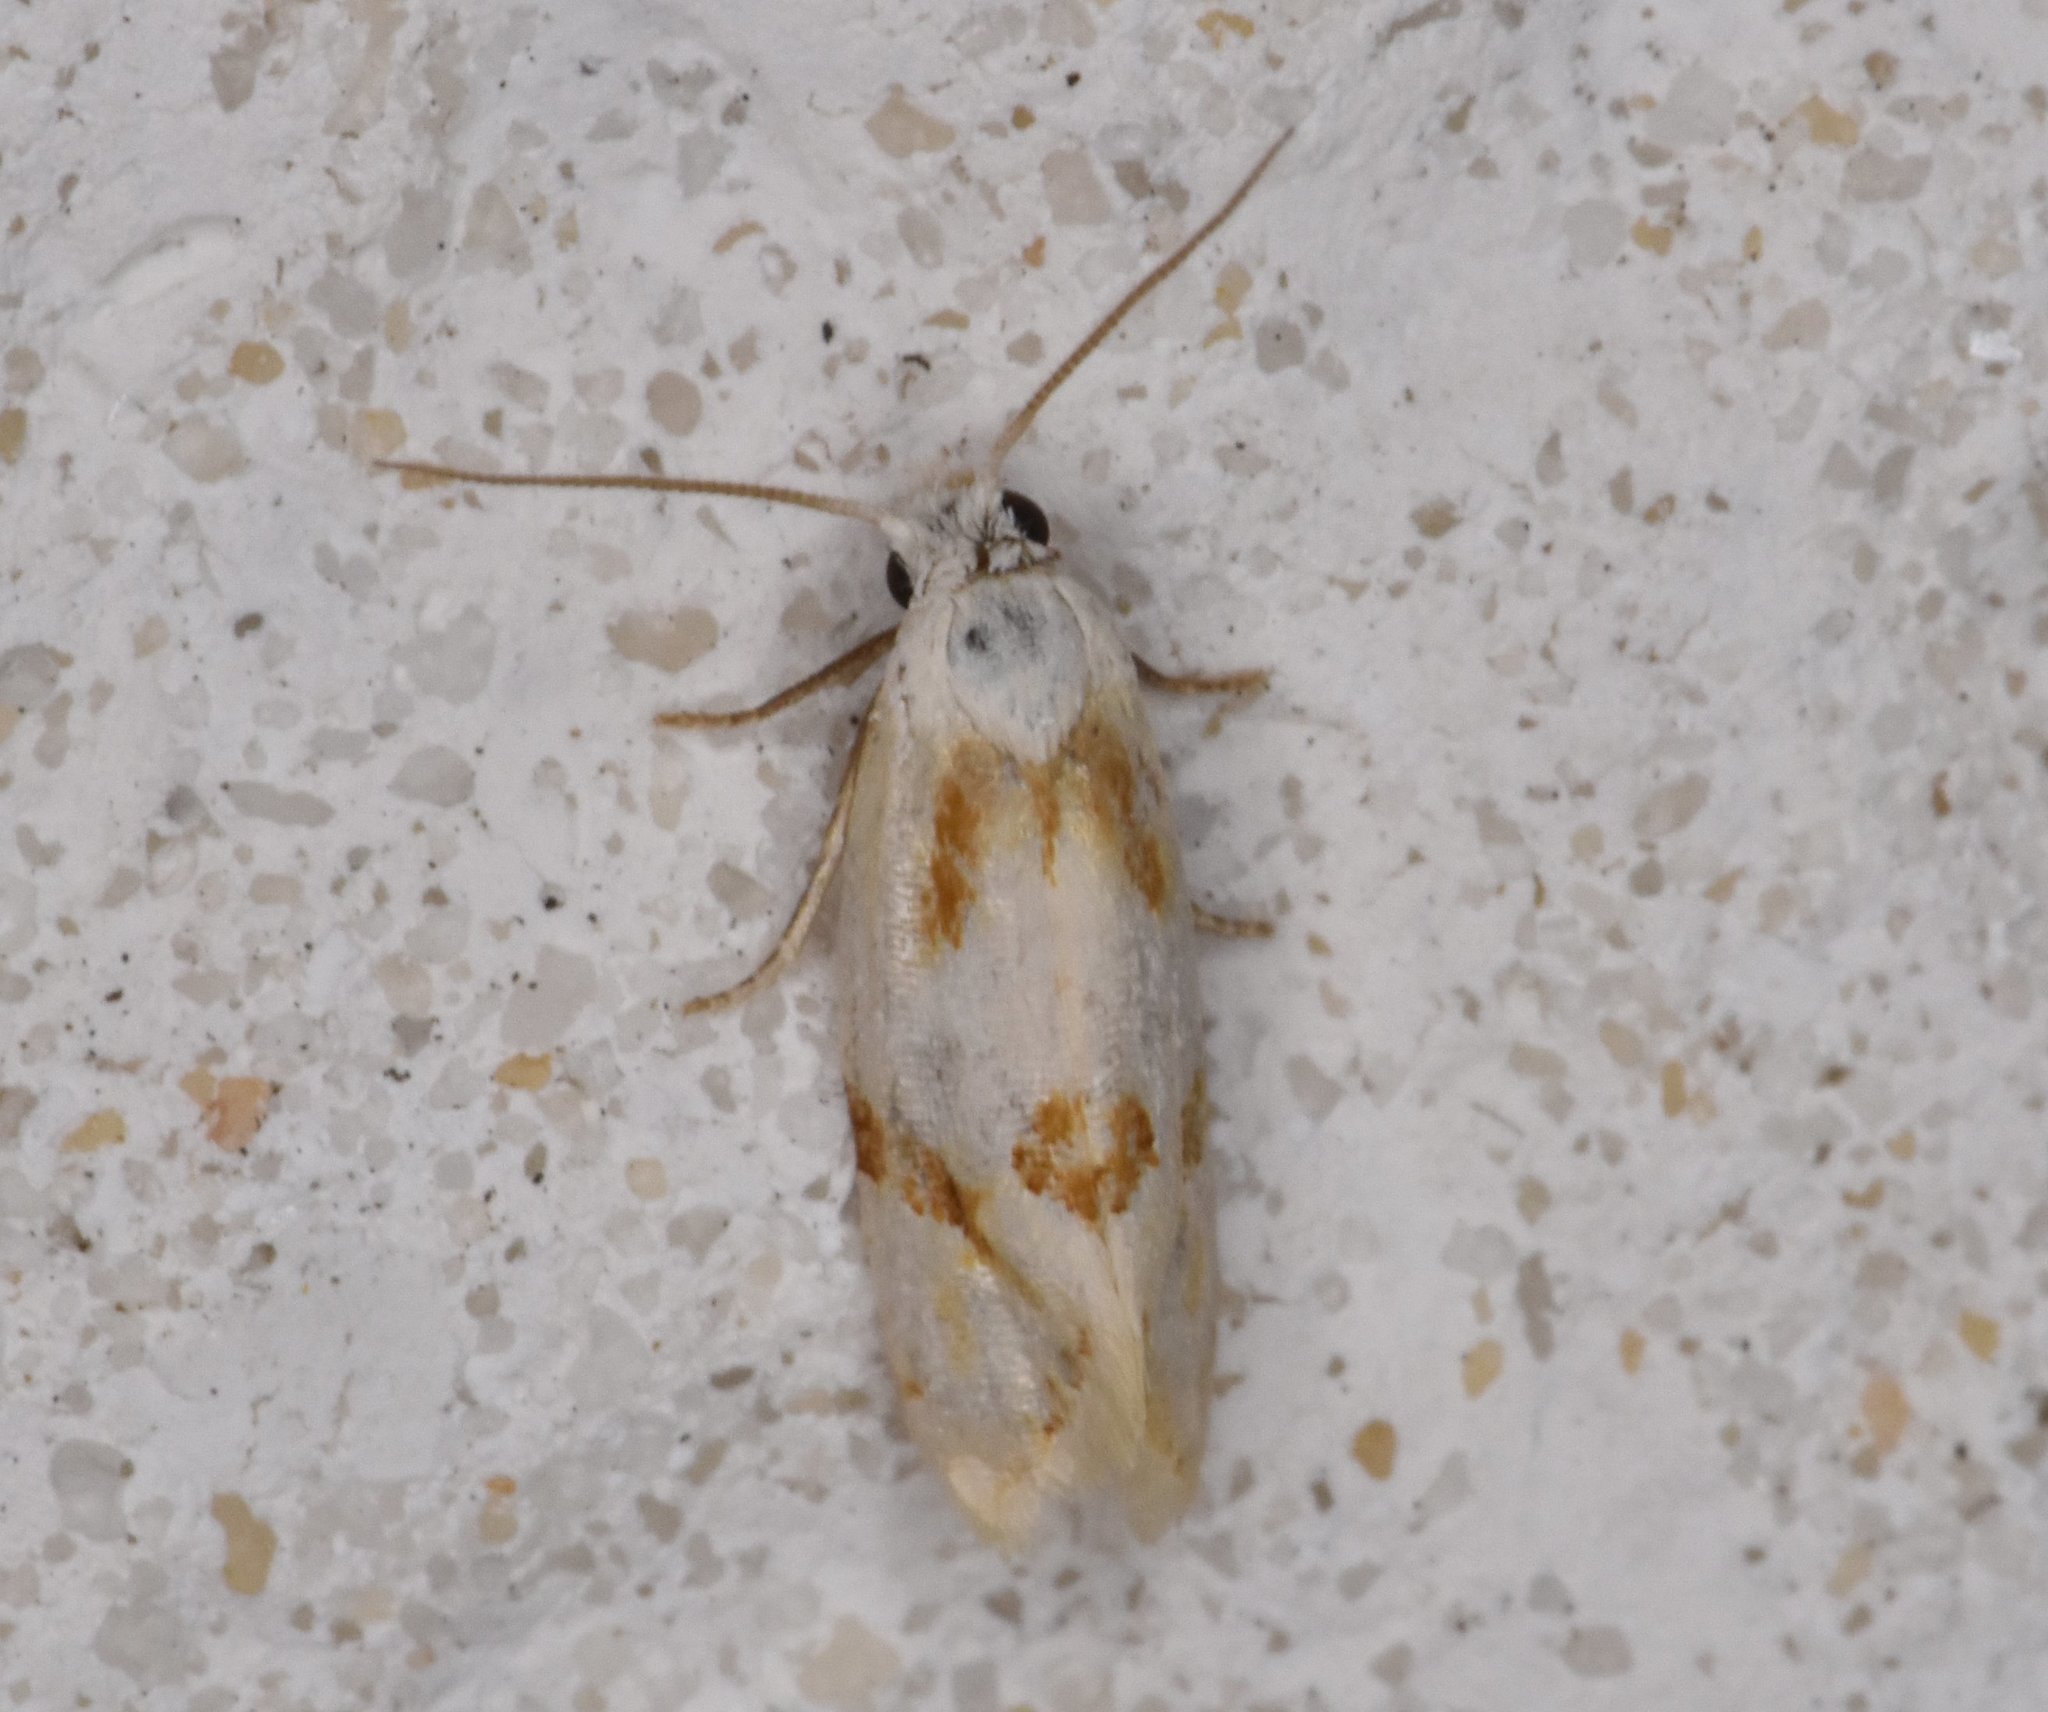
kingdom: Animalia
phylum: Arthropoda
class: Insecta
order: Lepidoptera
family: Tortricidae
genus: Aethes
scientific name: Aethes seriatana
